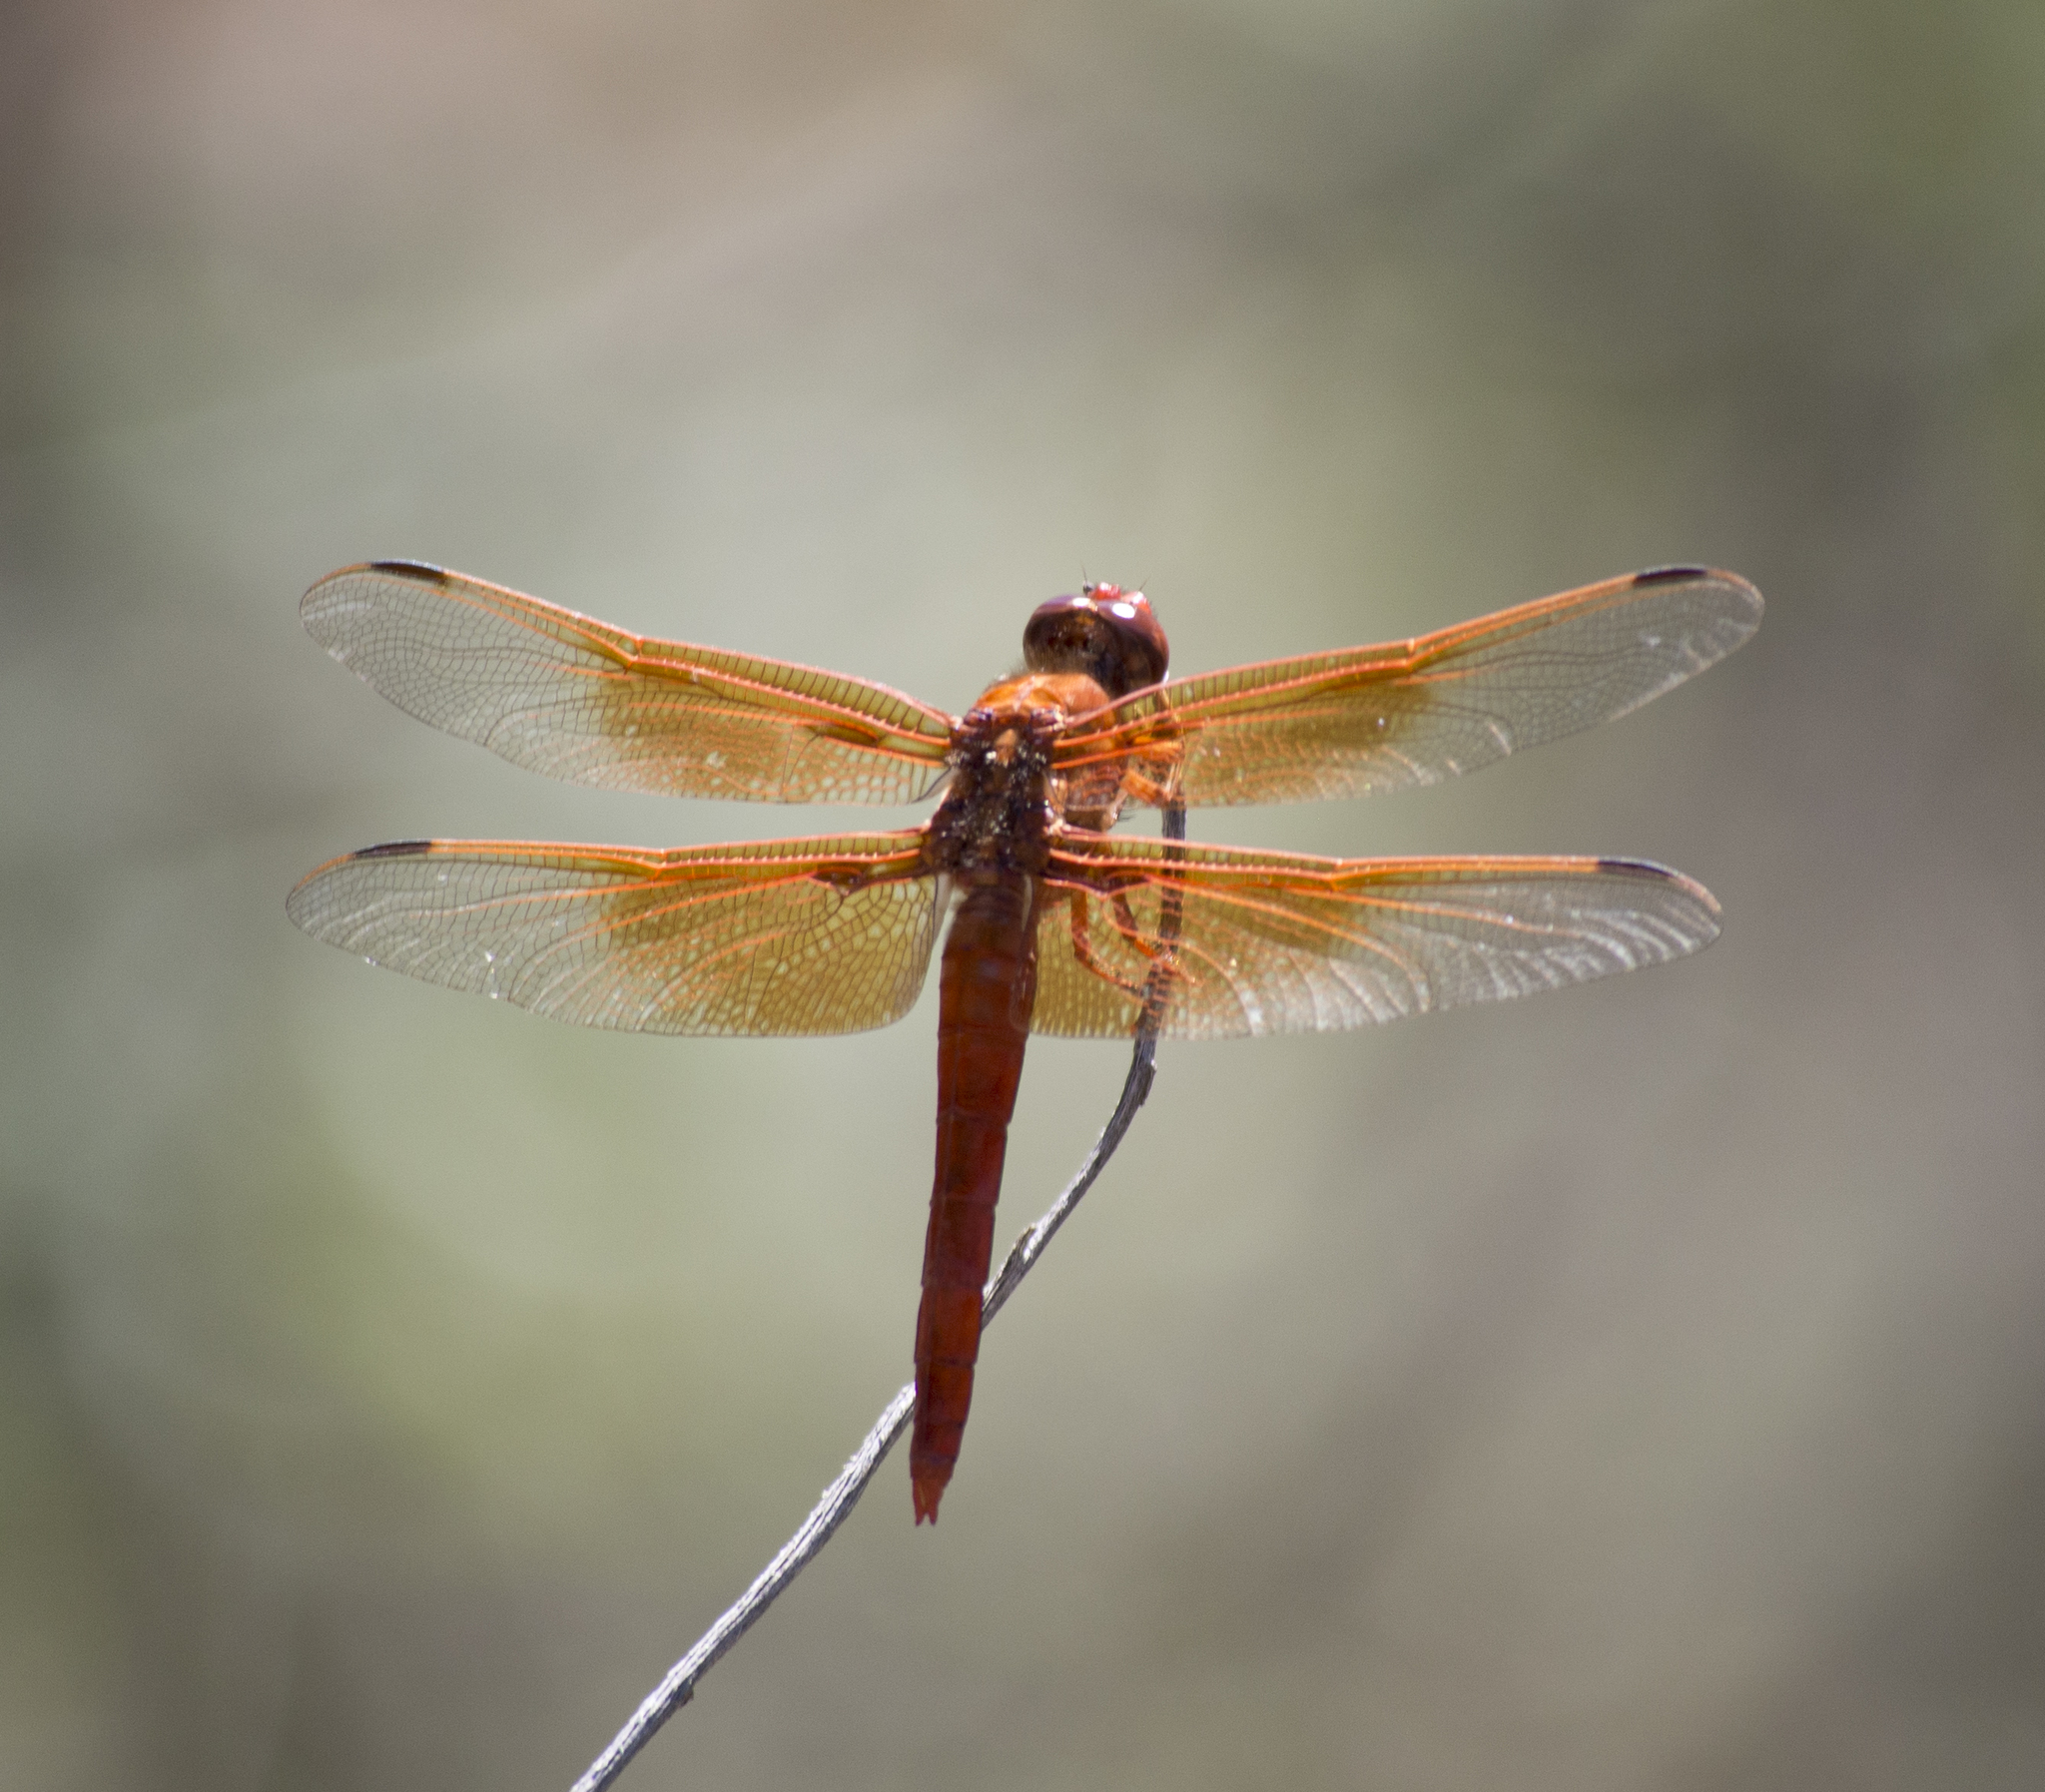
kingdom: Animalia
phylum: Arthropoda
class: Insecta
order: Odonata
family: Libellulidae
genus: Libellula
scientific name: Libellula saturata
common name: Flame skimmer
